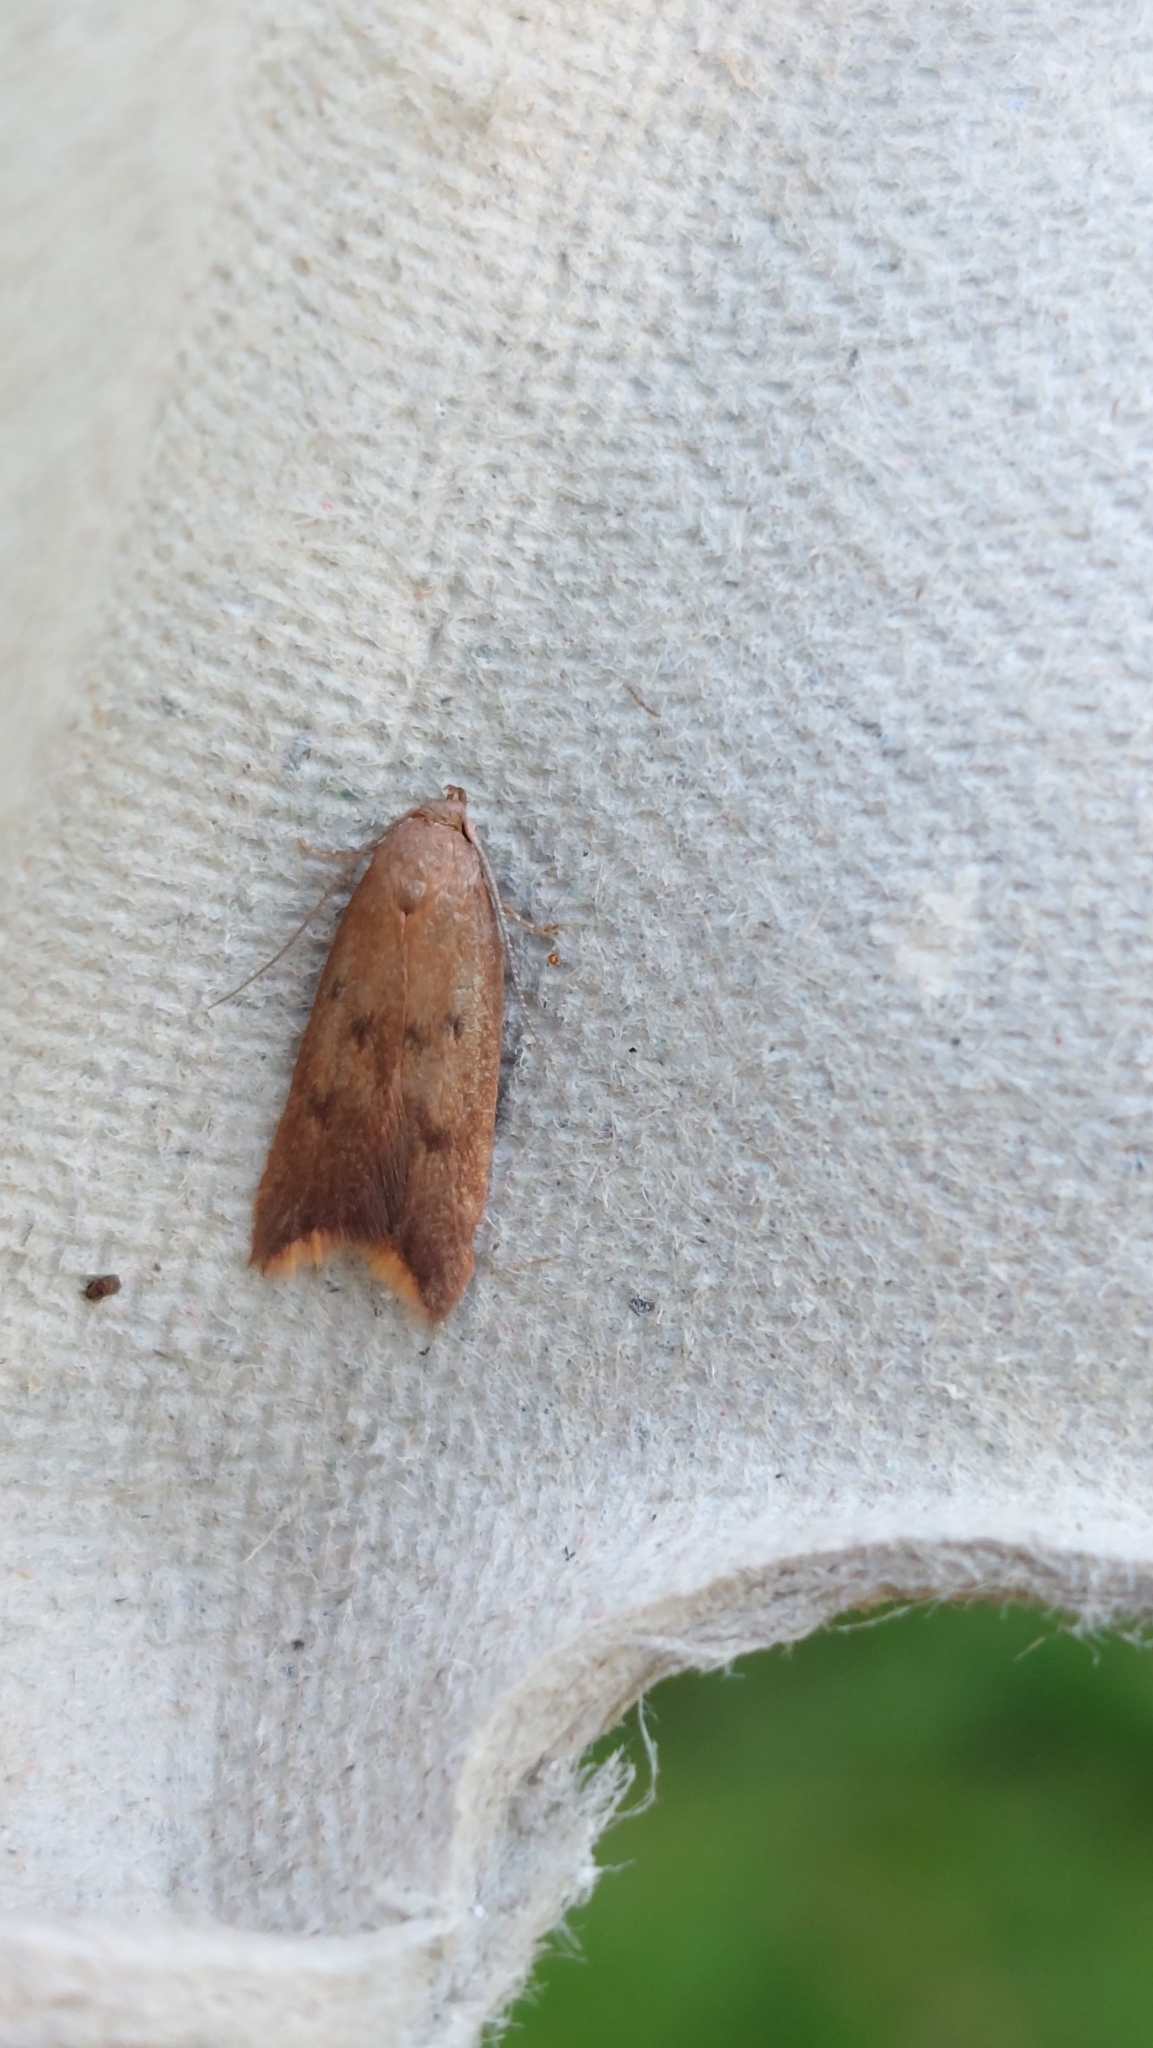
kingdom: Animalia
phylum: Arthropoda
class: Insecta
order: Lepidoptera
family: Oecophoridae
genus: Tachystola
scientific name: Tachystola acroxantha
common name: Ruddy streak
